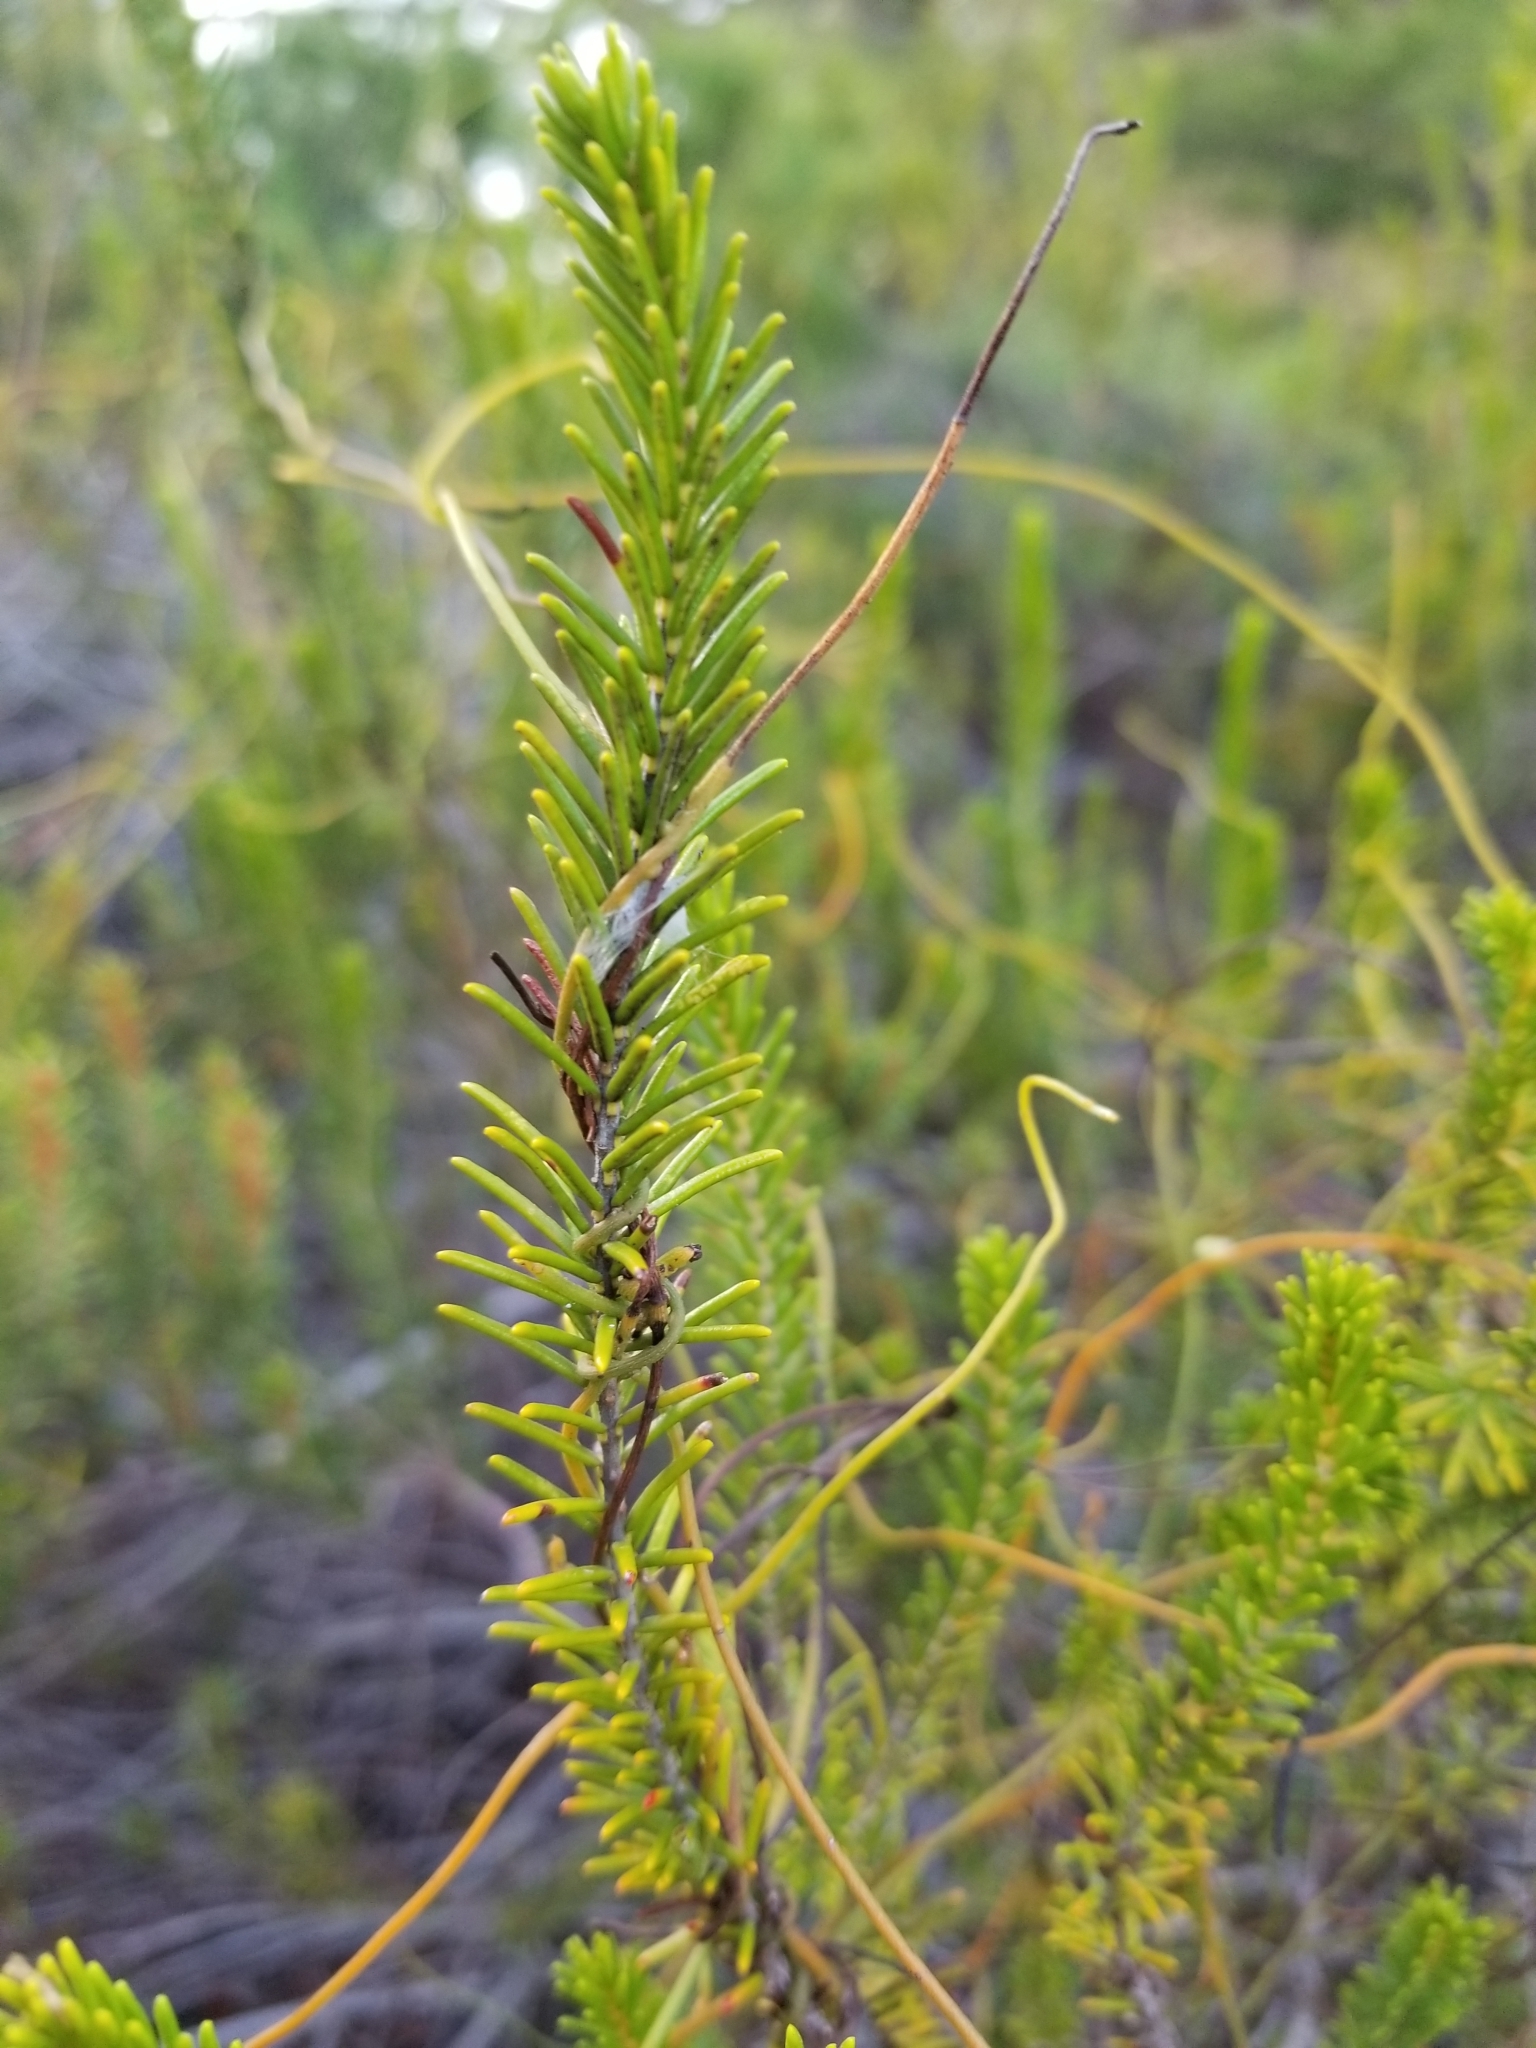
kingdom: Plantae
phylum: Tracheophyta
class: Magnoliopsida
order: Ericales
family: Ericaceae
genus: Ceratiola
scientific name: Ceratiola ericoides
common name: Sandhill-rosemary
